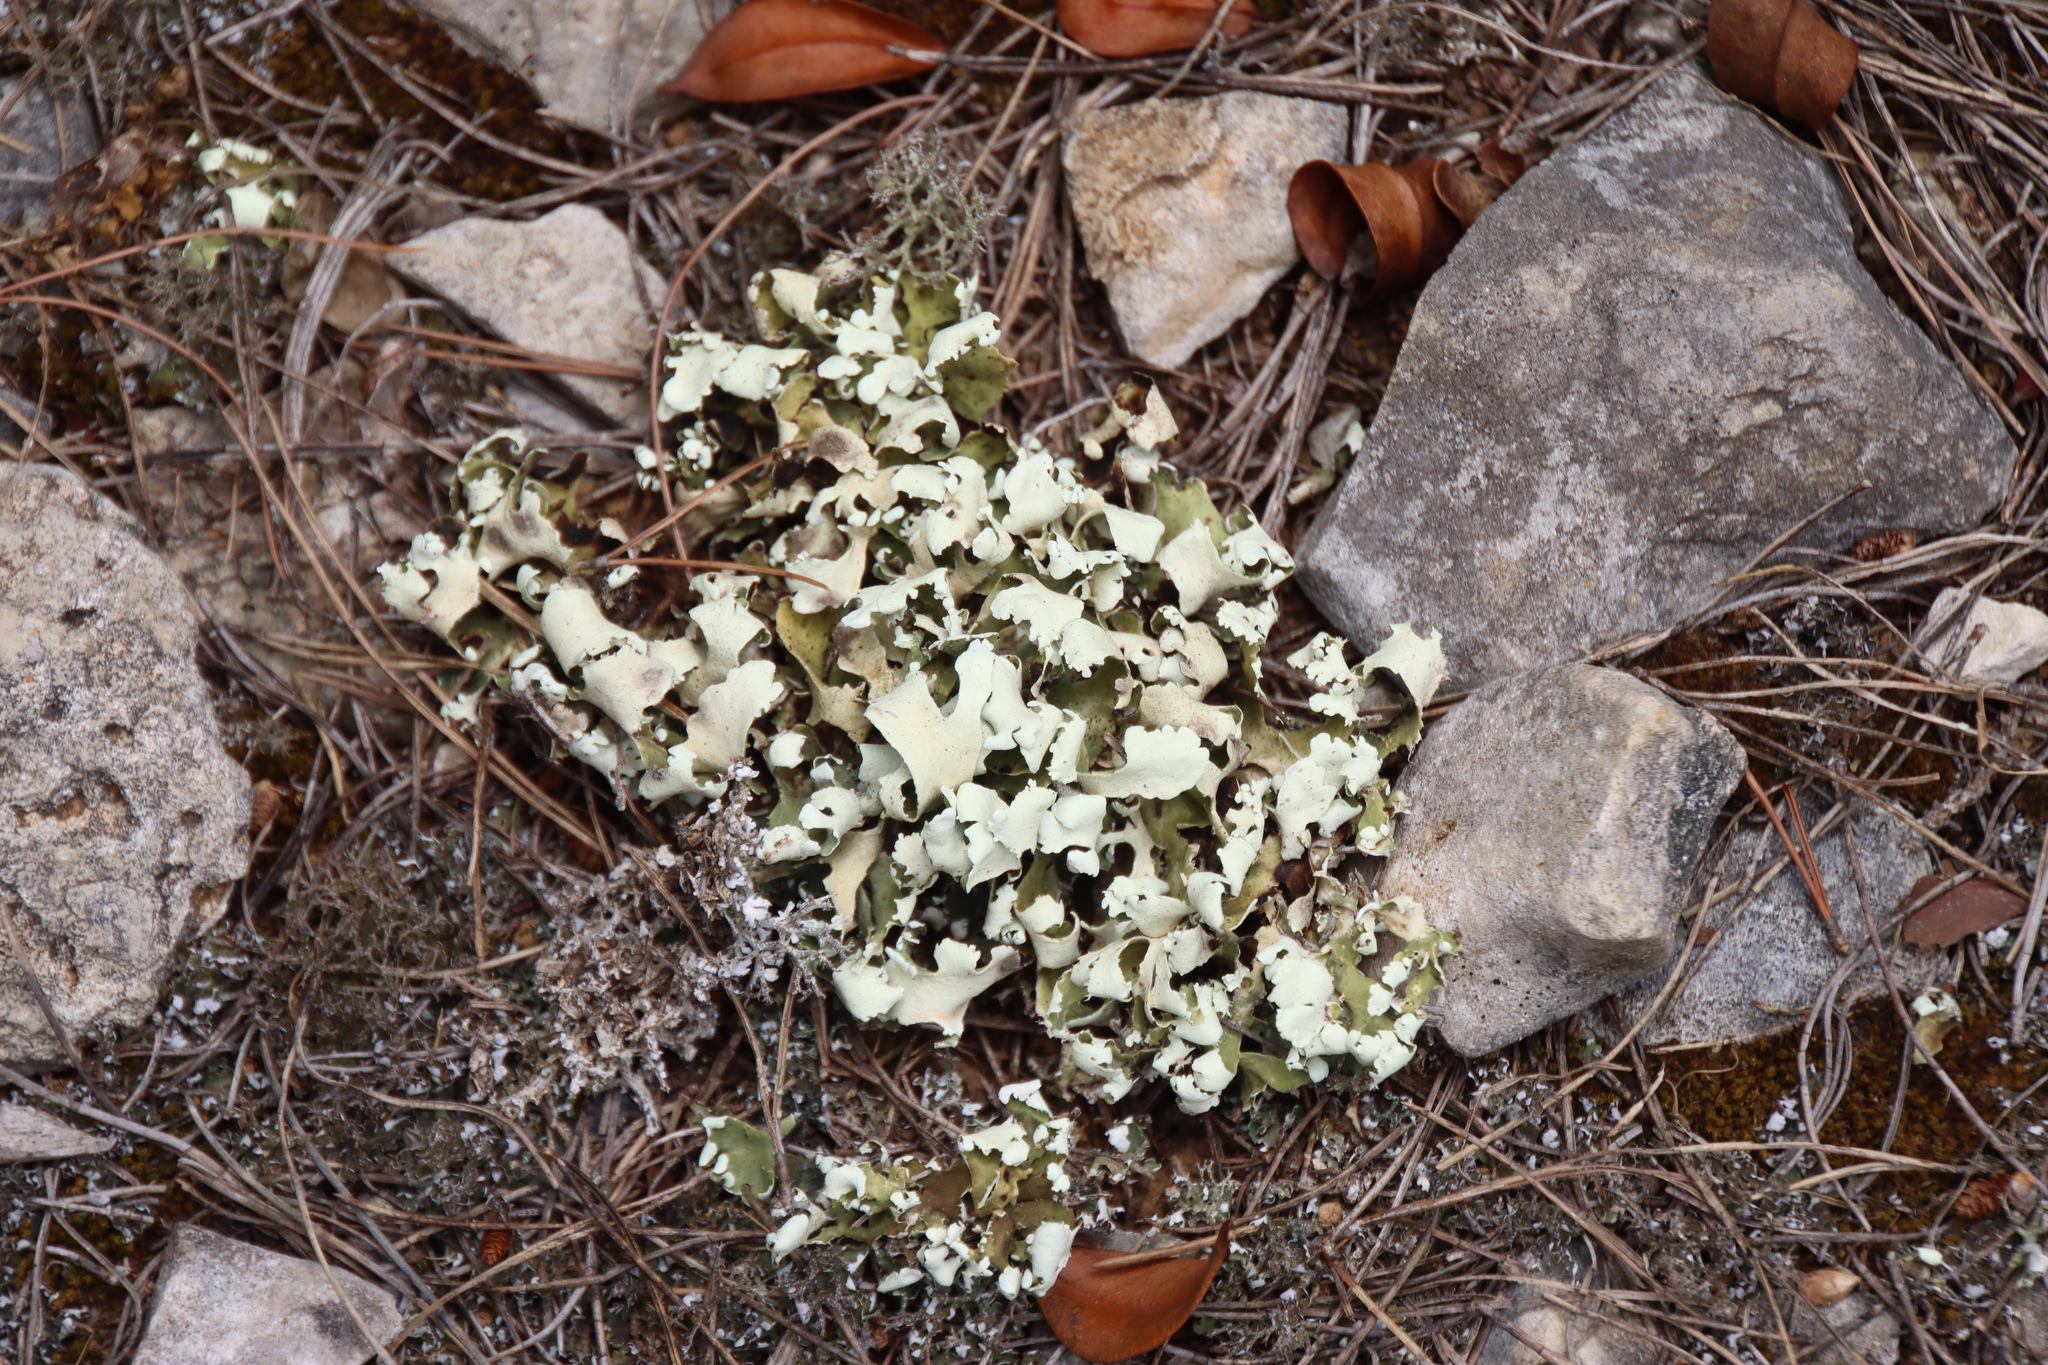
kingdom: Fungi
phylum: Ascomycota
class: Lecanoromycetes
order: Lecanorales
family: Cladoniaceae
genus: Cladonia
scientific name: Cladonia foliacea
